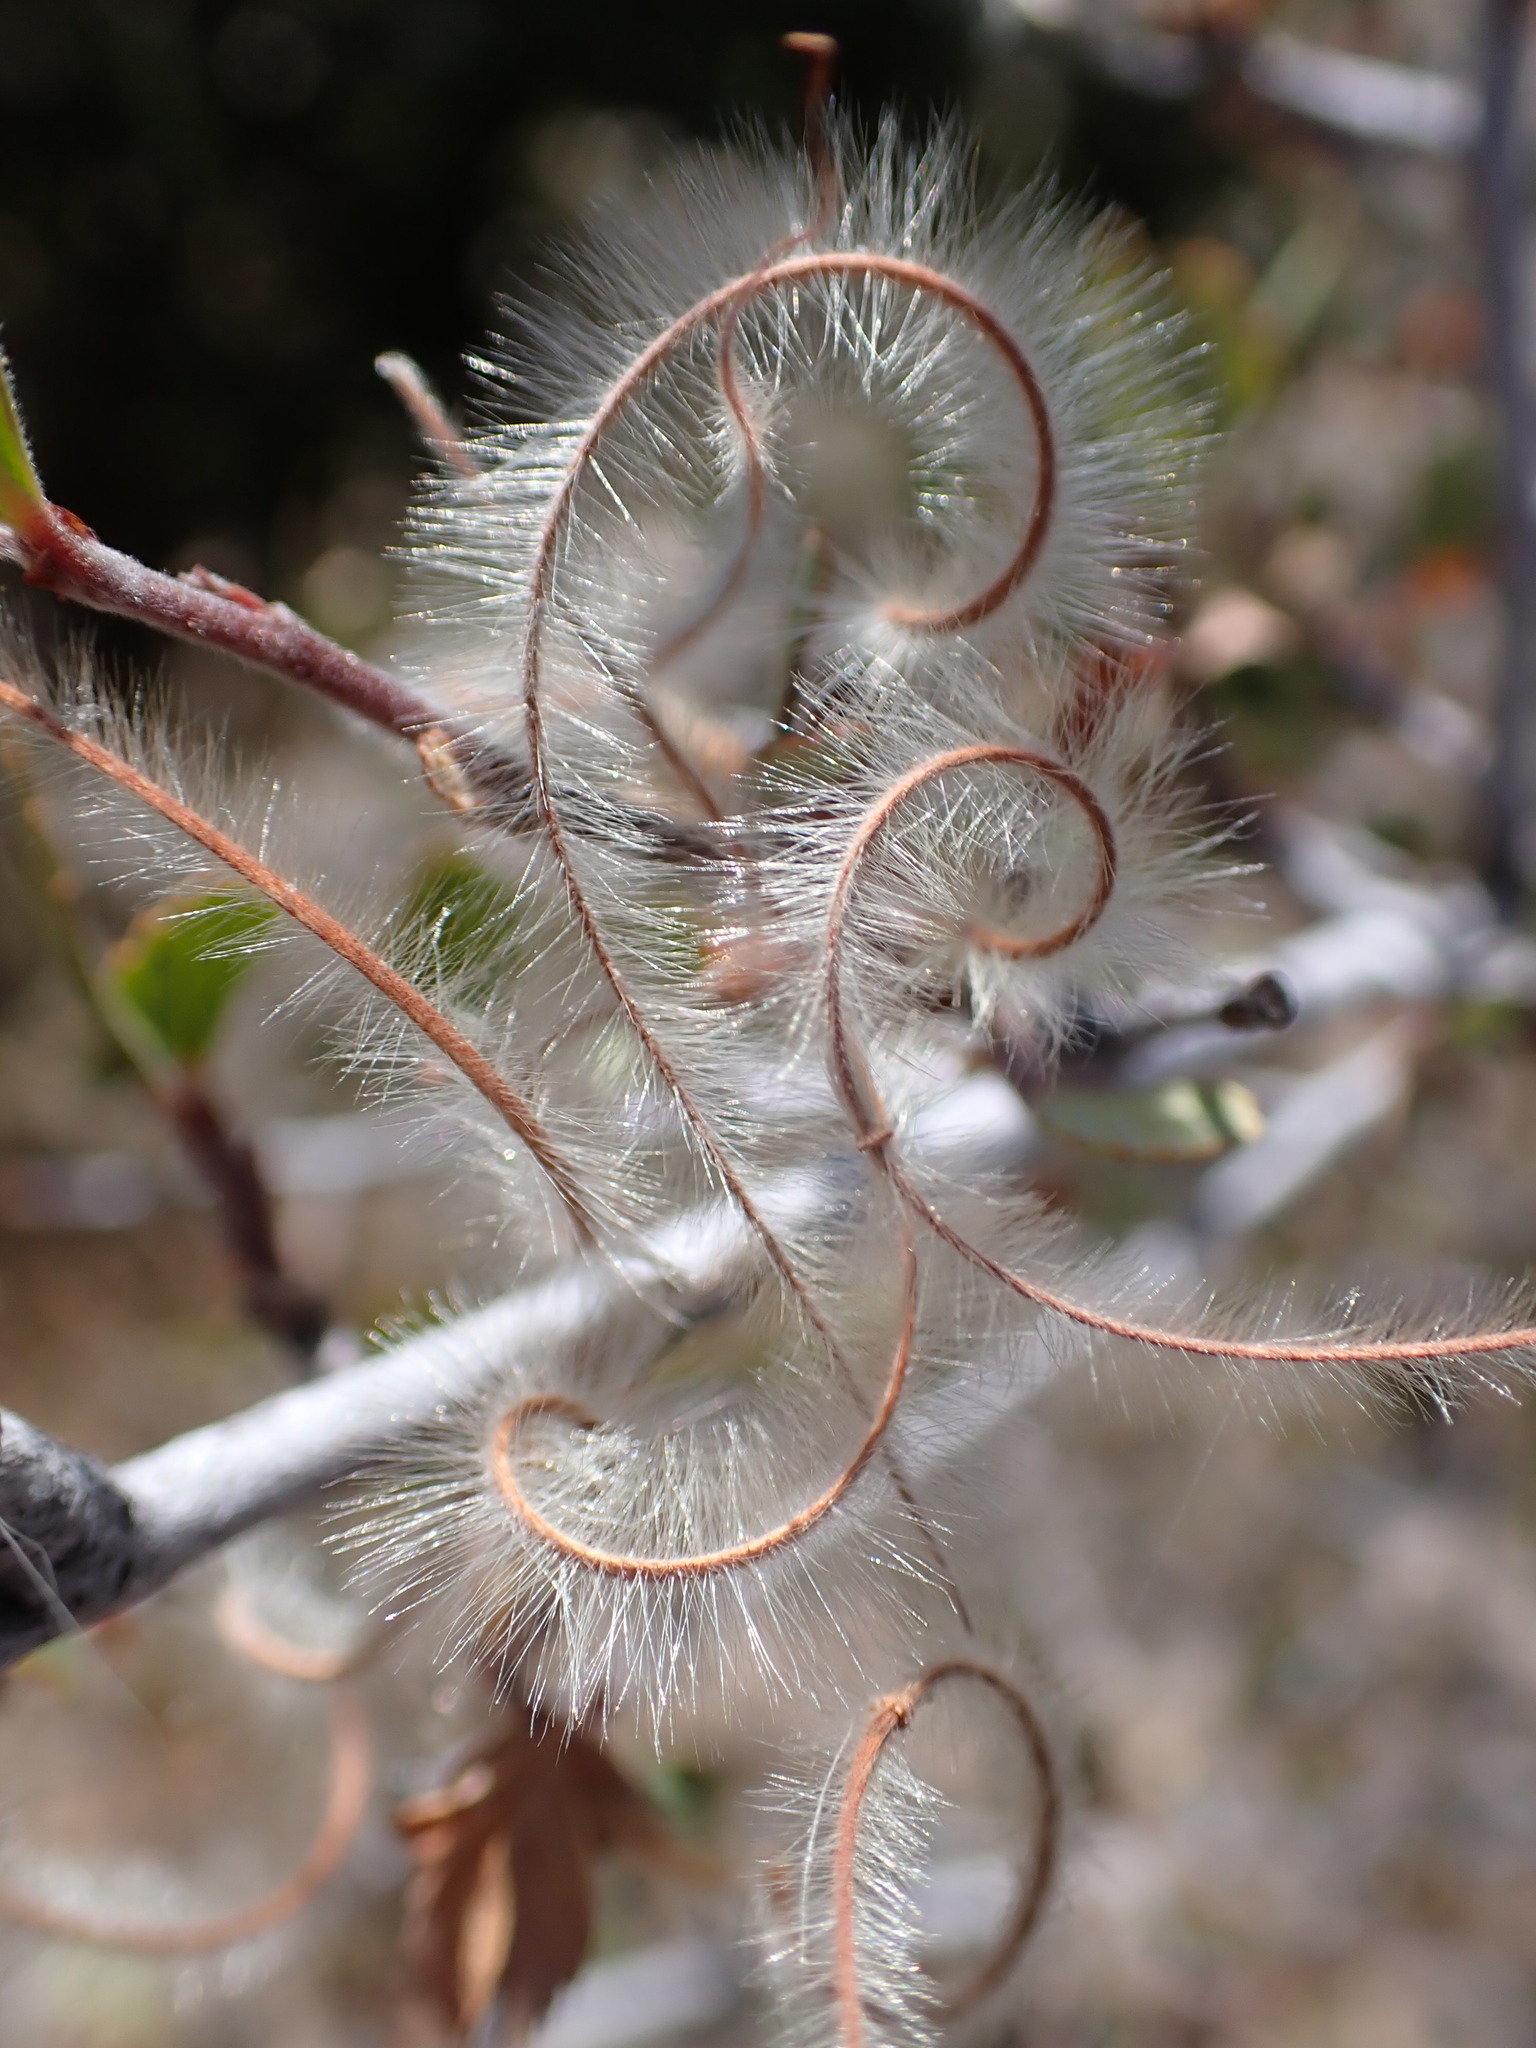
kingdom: Plantae
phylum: Tracheophyta
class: Magnoliopsida
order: Rosales
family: Rosaceae
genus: Cercocarpus
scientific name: Cercocarpus betuloides
